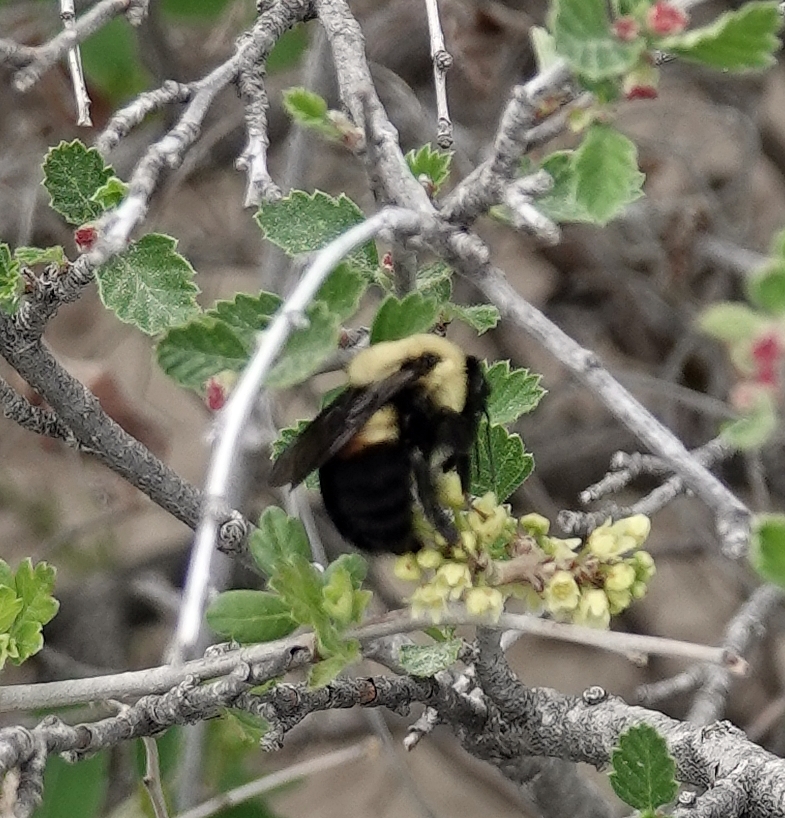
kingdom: Animalia
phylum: Arthropoda
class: Insecta
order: Hymenoptera
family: Apidae
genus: Bombus
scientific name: Bombus griseocollis
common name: Brown-belted bumble bee
